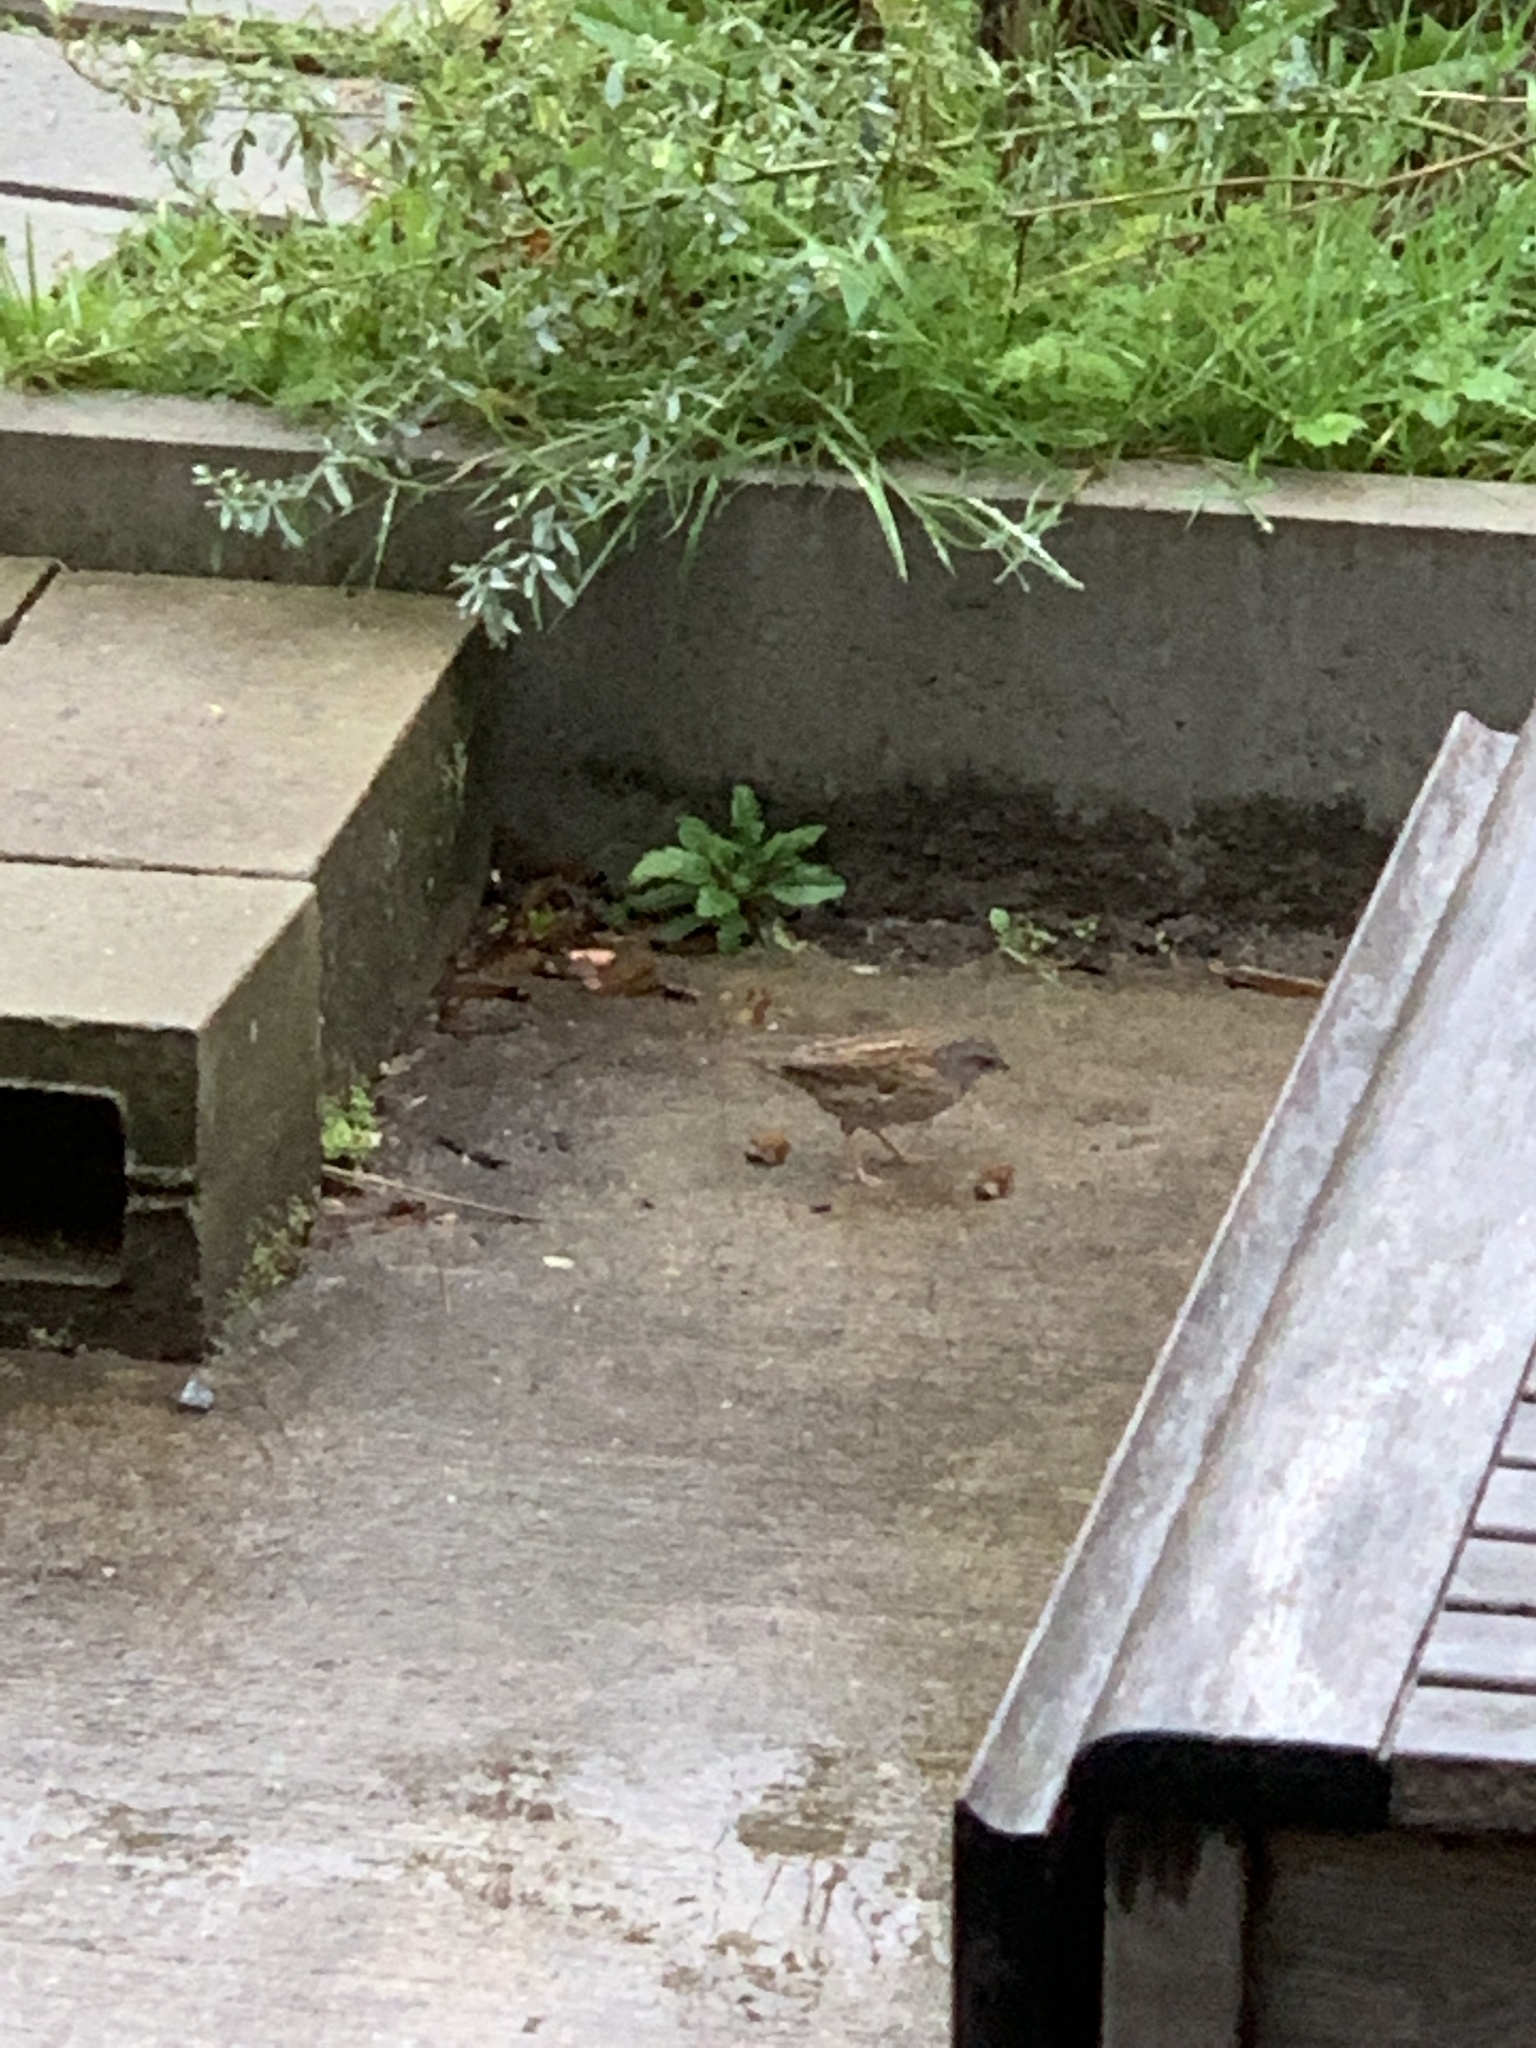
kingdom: Animalia
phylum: Chordata
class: Aves
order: Passeriformes
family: Prunellidae
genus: Prunella
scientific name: Prunella modularis
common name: Dunnock
